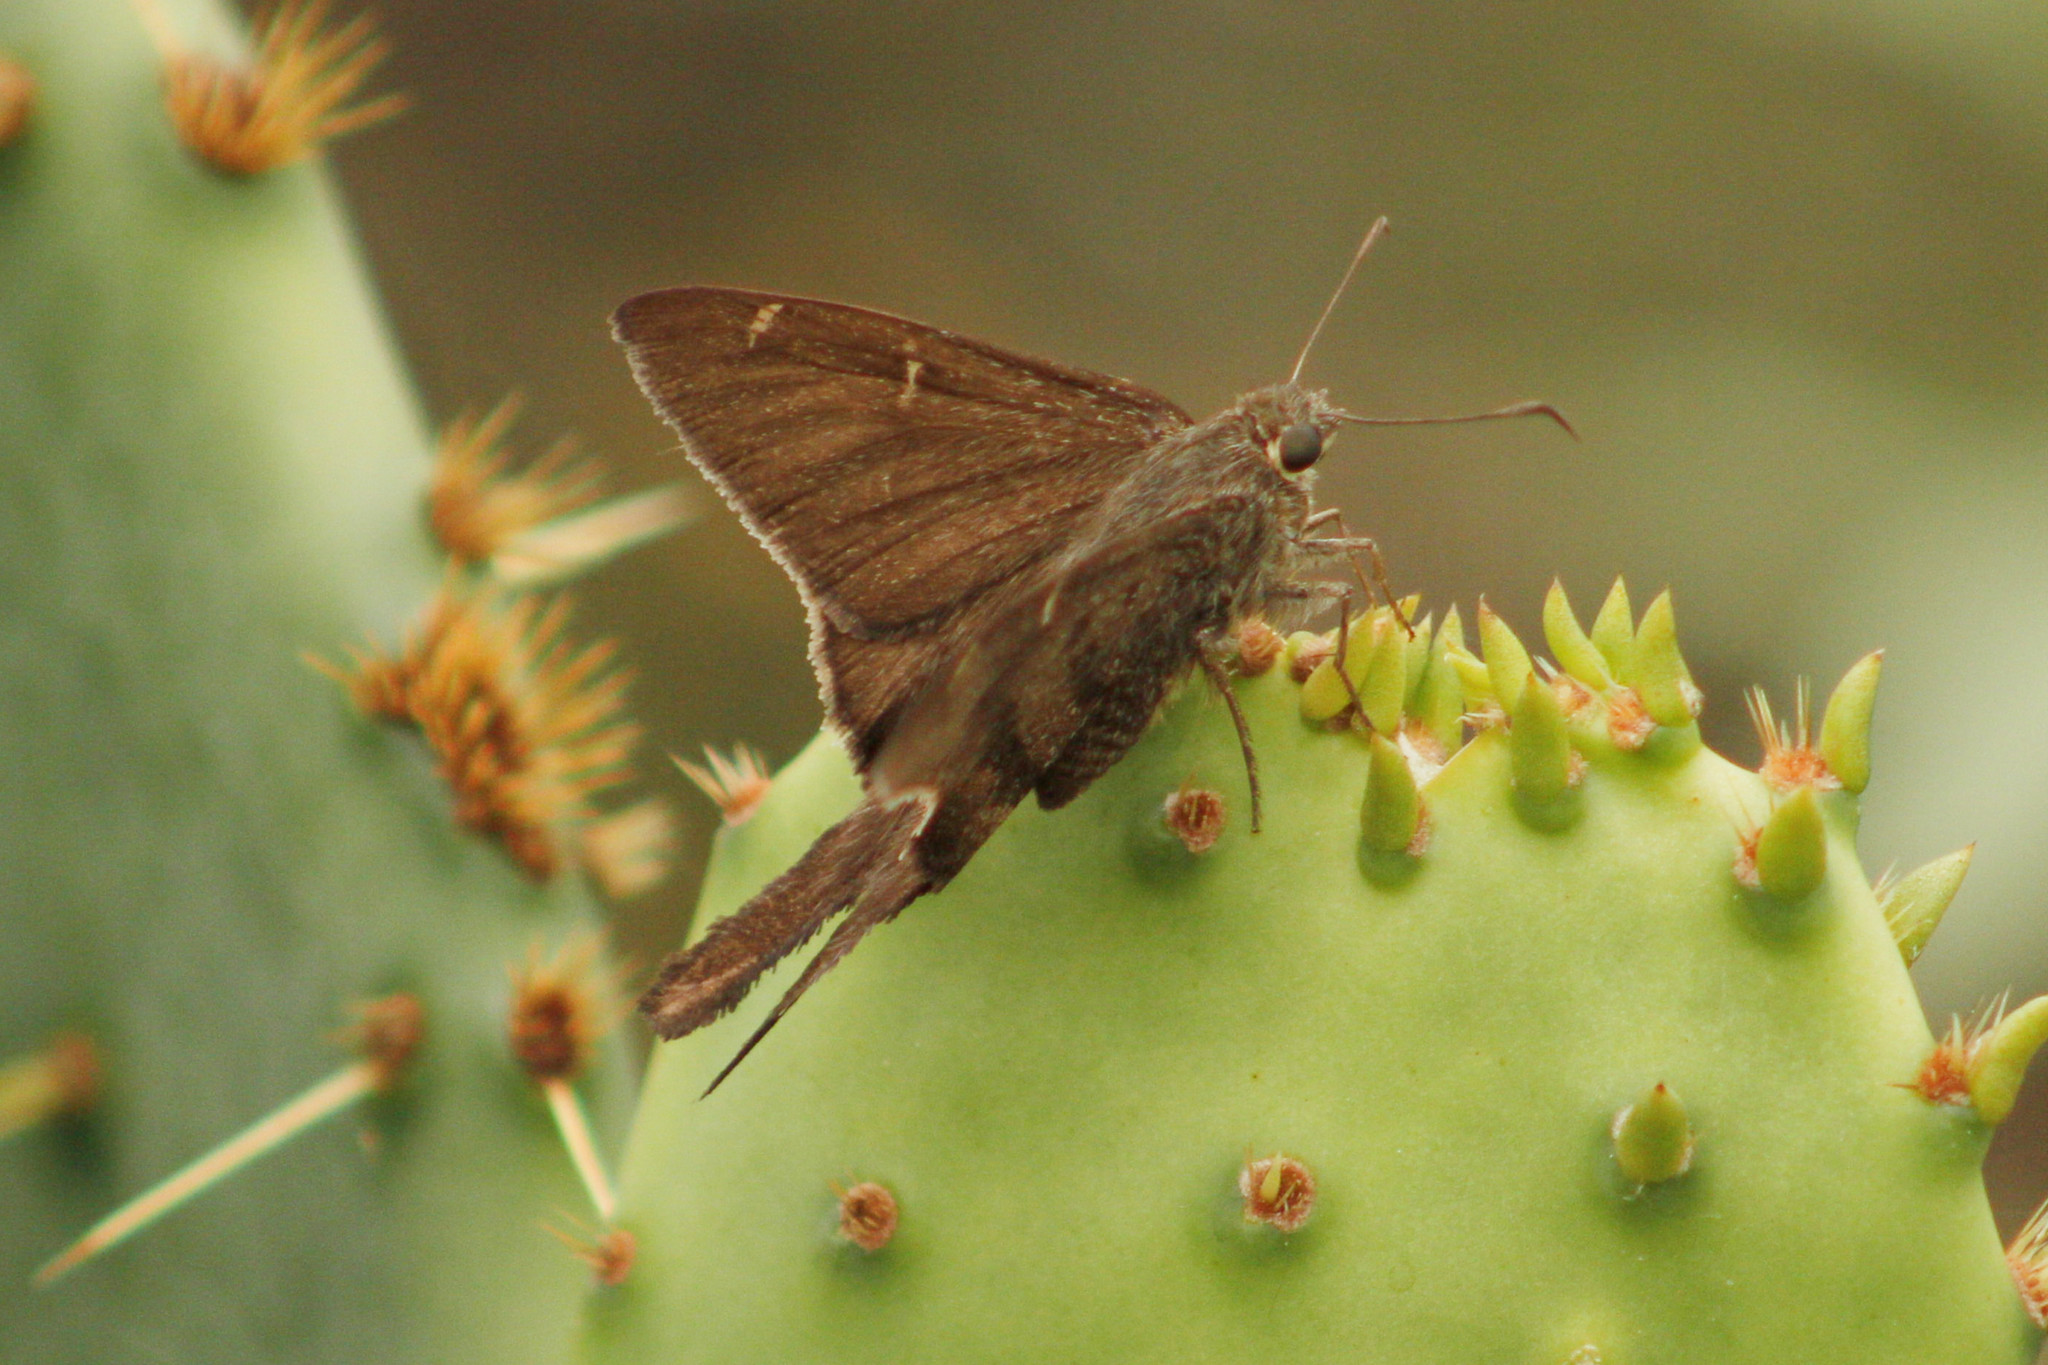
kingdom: Animalia
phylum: Arthropoda
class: Insecta
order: Lepidoptera
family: Hesperiidae
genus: Urbanus
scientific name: Urbanus procne
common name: Brown longtail
